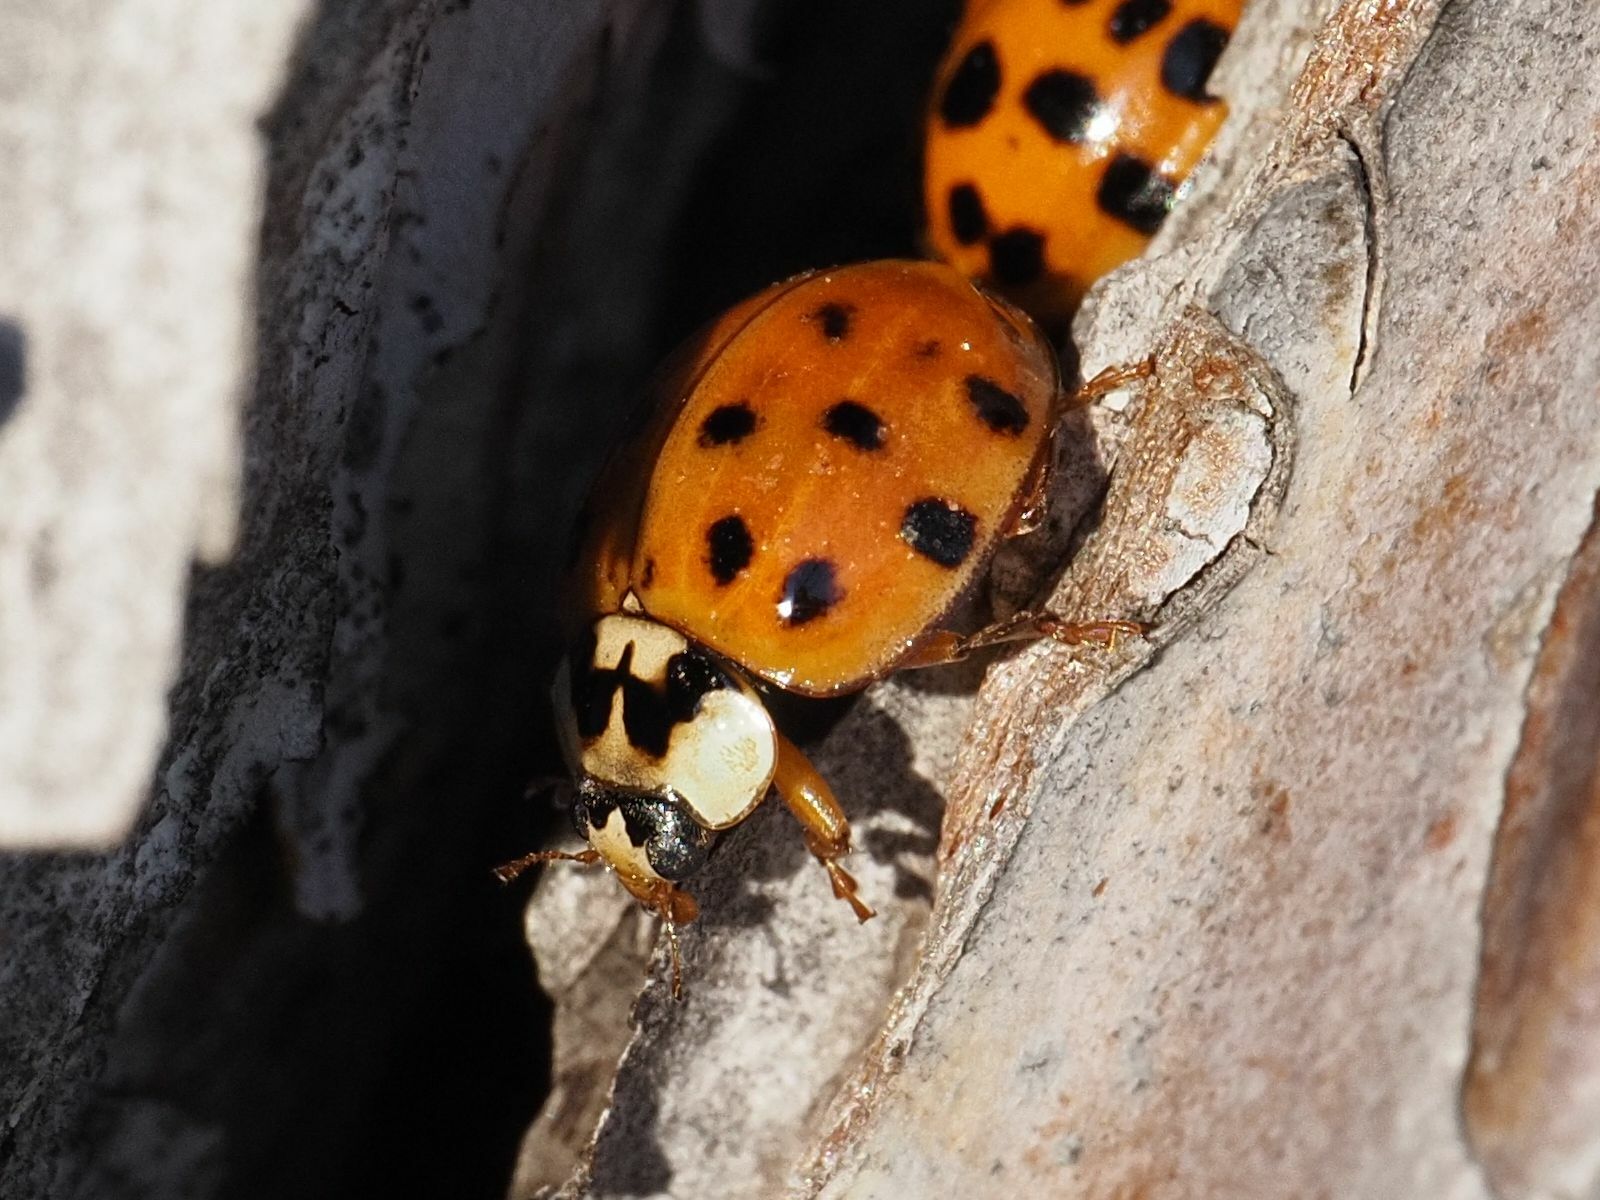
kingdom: Animalia
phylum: Arthropoda
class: Insecta
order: Coleoptera
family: Coccinellidae
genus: Harmonia
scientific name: Harmonia axyridis
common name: Harlequin ladybird
